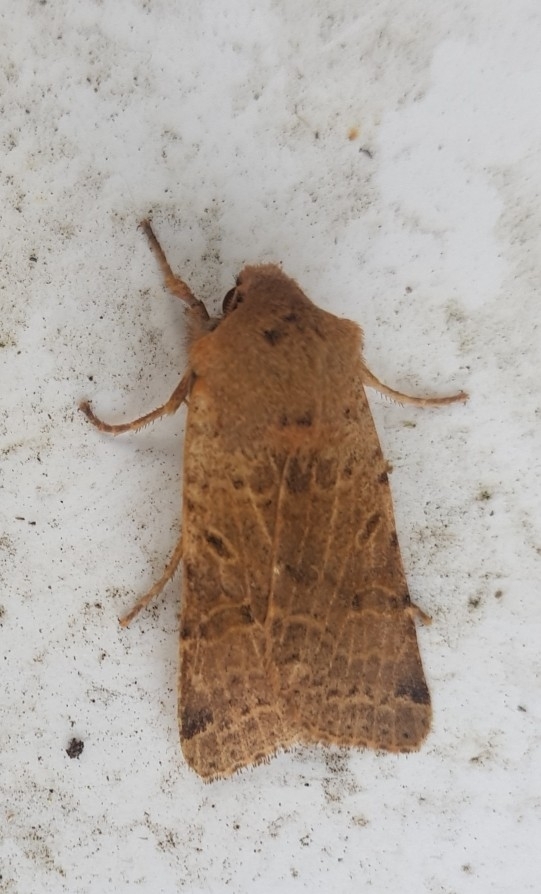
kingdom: Animalia
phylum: Arthropoda
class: Insecta
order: Lepidoptera
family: Noctuidae
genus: Agrochola
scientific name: Agrochola lunosa
